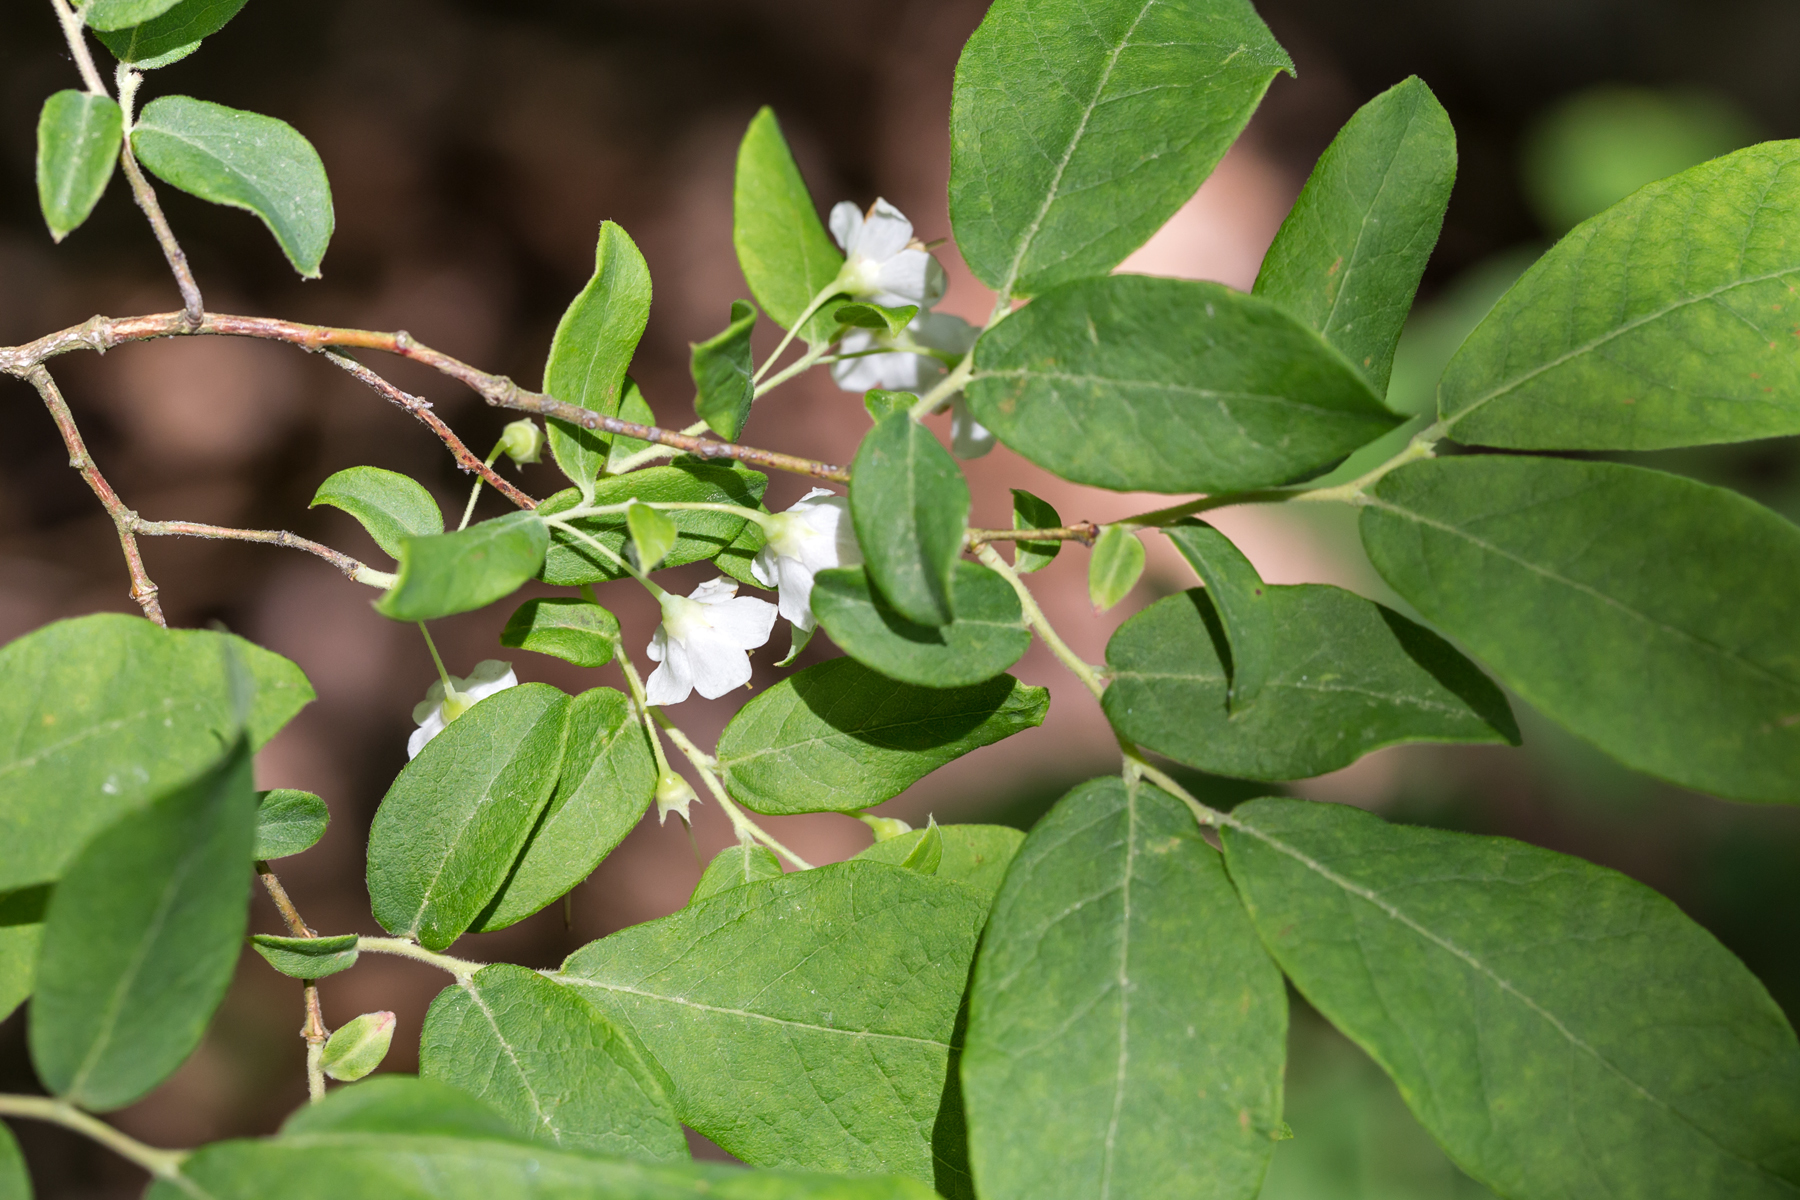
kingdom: Plantae
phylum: Tracheophyta
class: Magnoliopsida
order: Ericales
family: Ericaceae
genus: Vaccinium
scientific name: Vaccinium stamineum
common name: Deerberry
